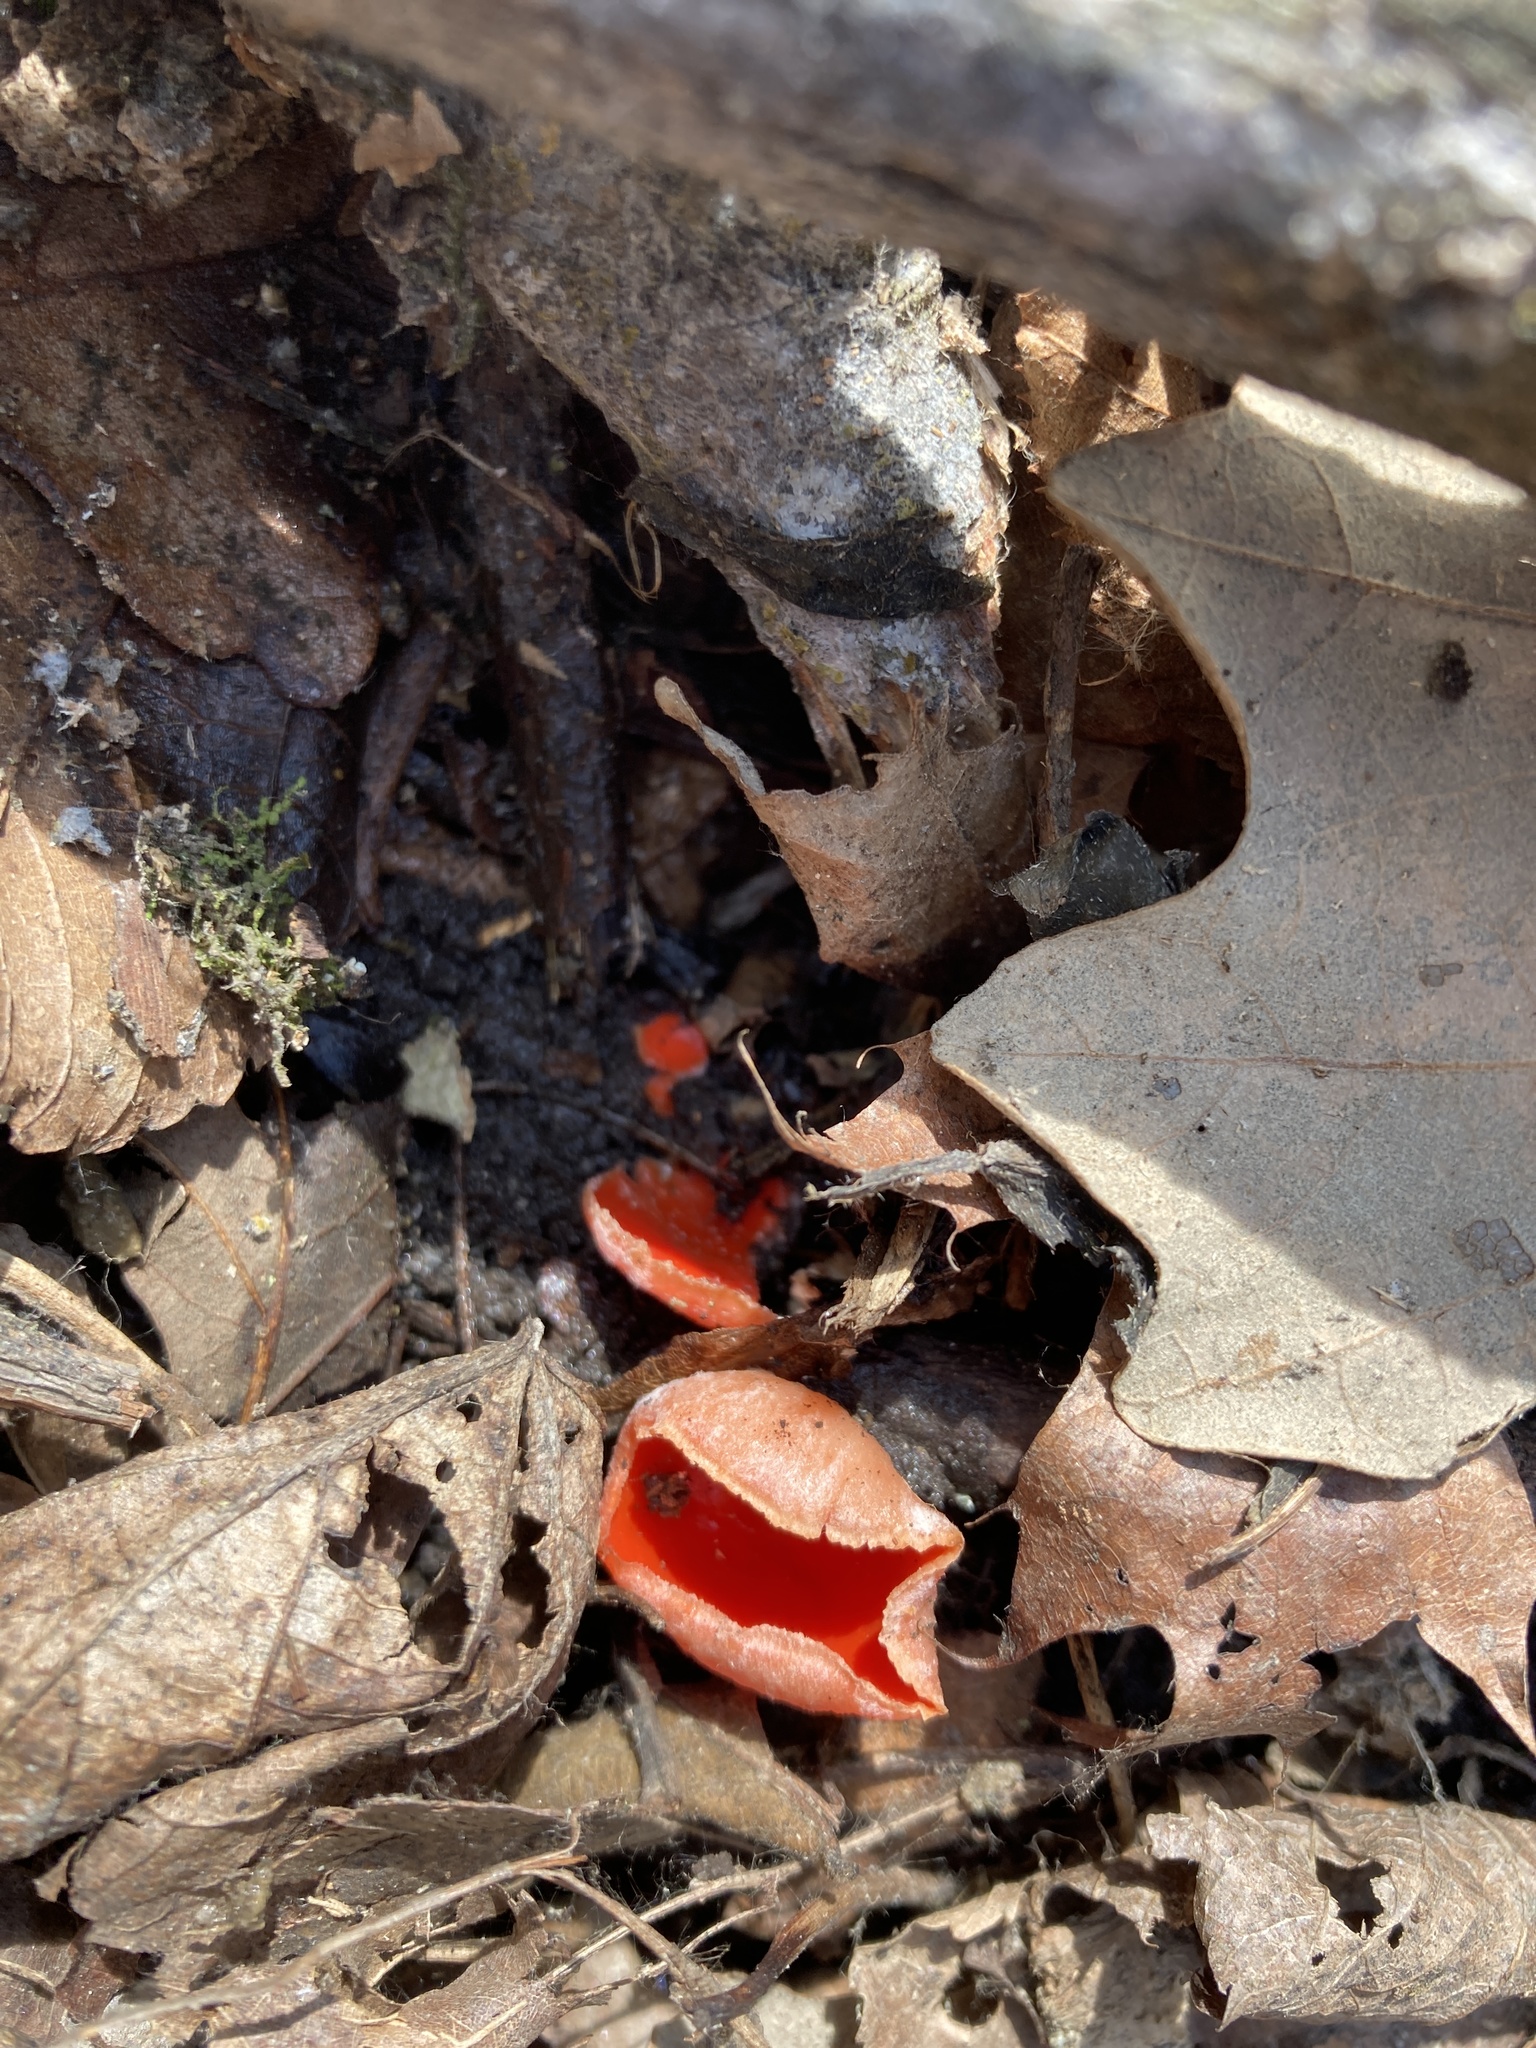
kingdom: Fungi
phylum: Ascomycota
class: Pezizomycetes
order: Pezizales
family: Sarcoscyphaceae
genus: Sarcoscypha
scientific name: Sarcoscypha austriaca
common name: Scarlet elfcup
